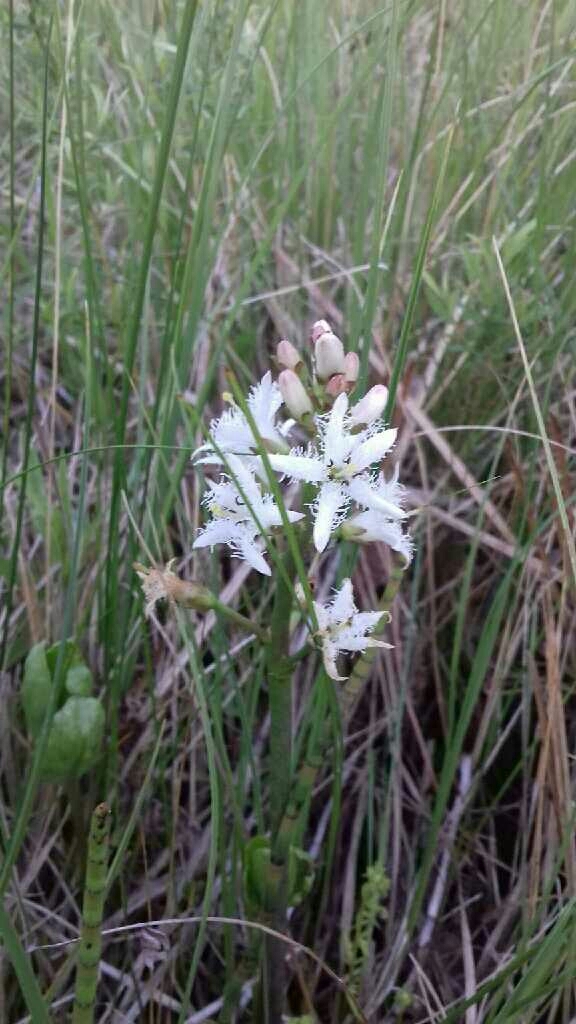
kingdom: Plantae
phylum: Tracheophyta
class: Magnoliopsida
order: Asterales
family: Menyanthaceae
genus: Menyanthes
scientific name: Menyanthes trifoliata
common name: Bogbean
